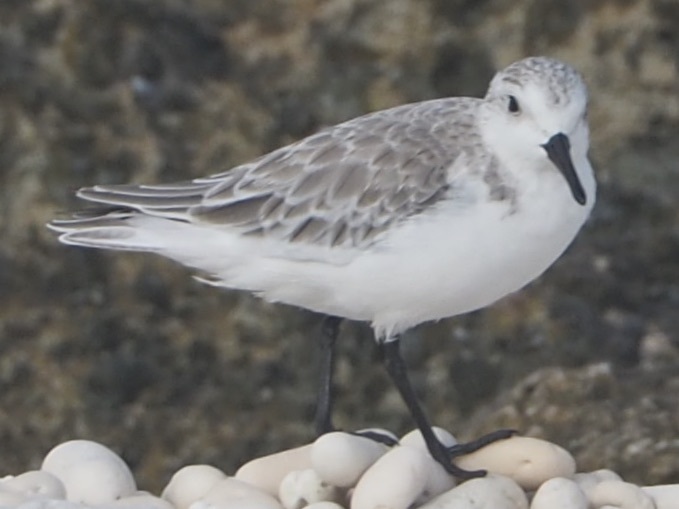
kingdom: Animalia
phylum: Chordata
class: Aves
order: Charadriiformes
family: Scolopacidae
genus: Calidris
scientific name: Calidris alba
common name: Sanderling
